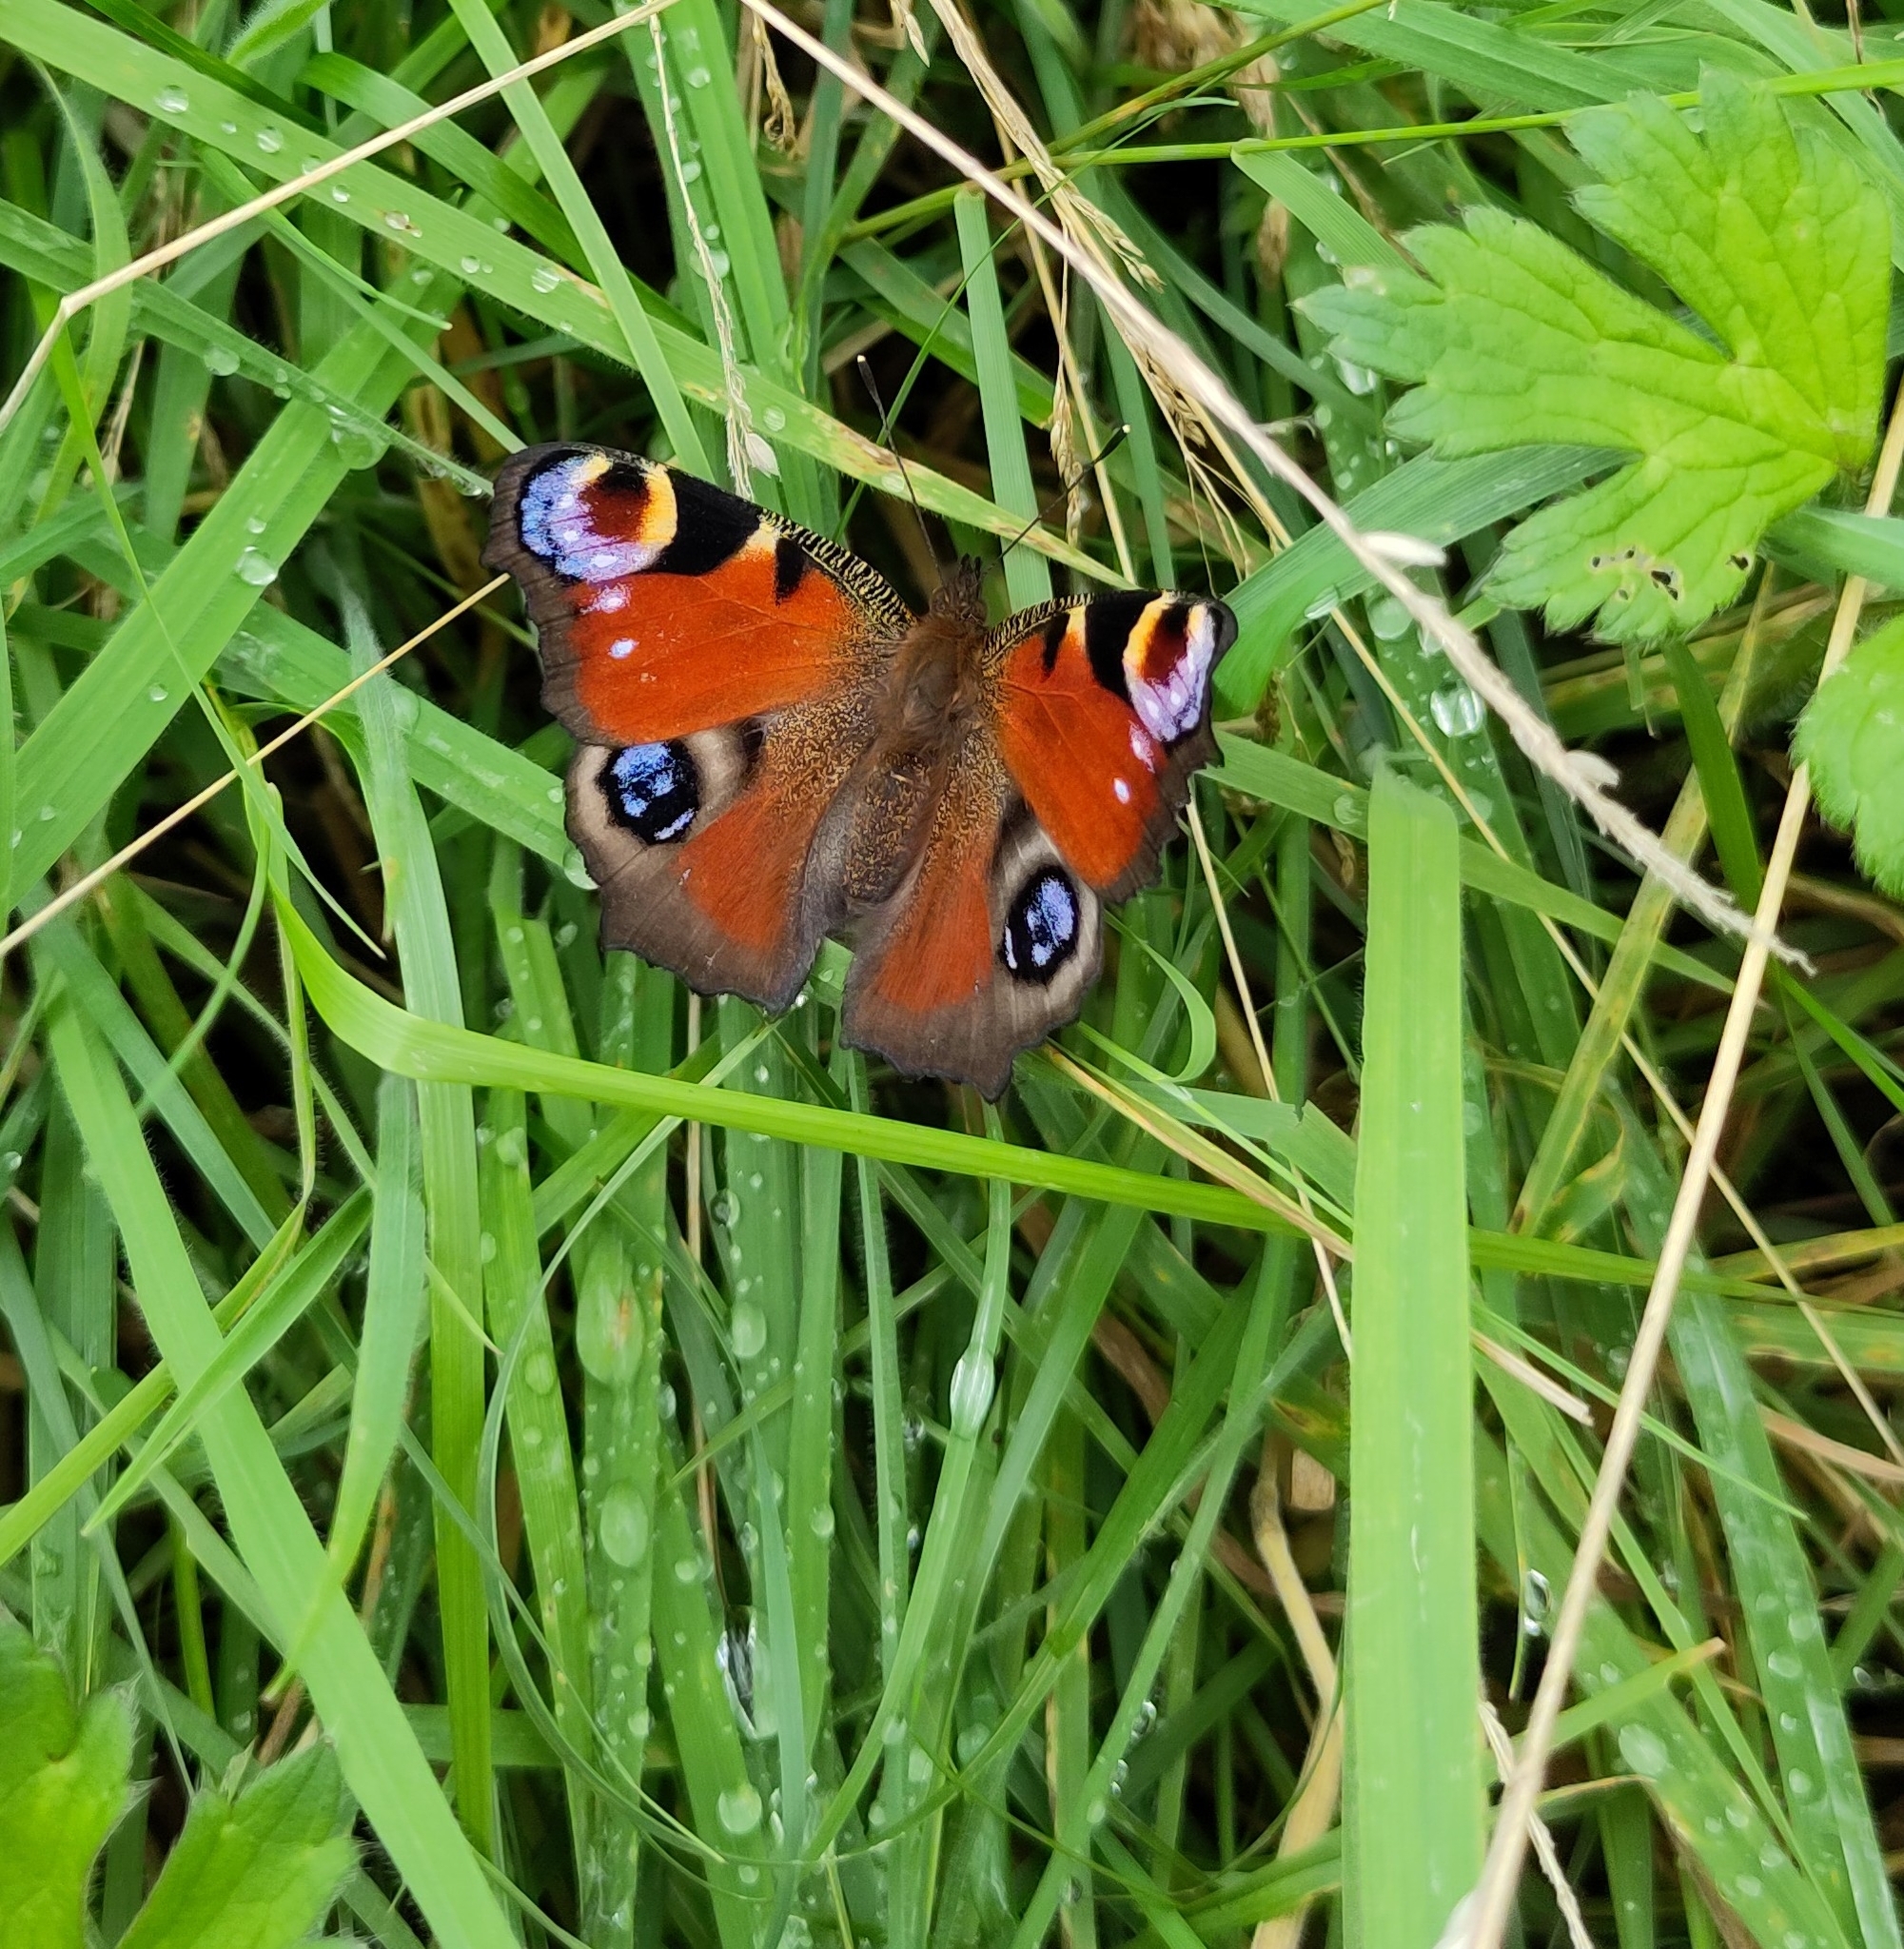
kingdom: Animalia
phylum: Arthropoda
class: Insecta
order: Lepidoptera
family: Nymphalidae
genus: Aglais
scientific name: Aglais io
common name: Peacock
